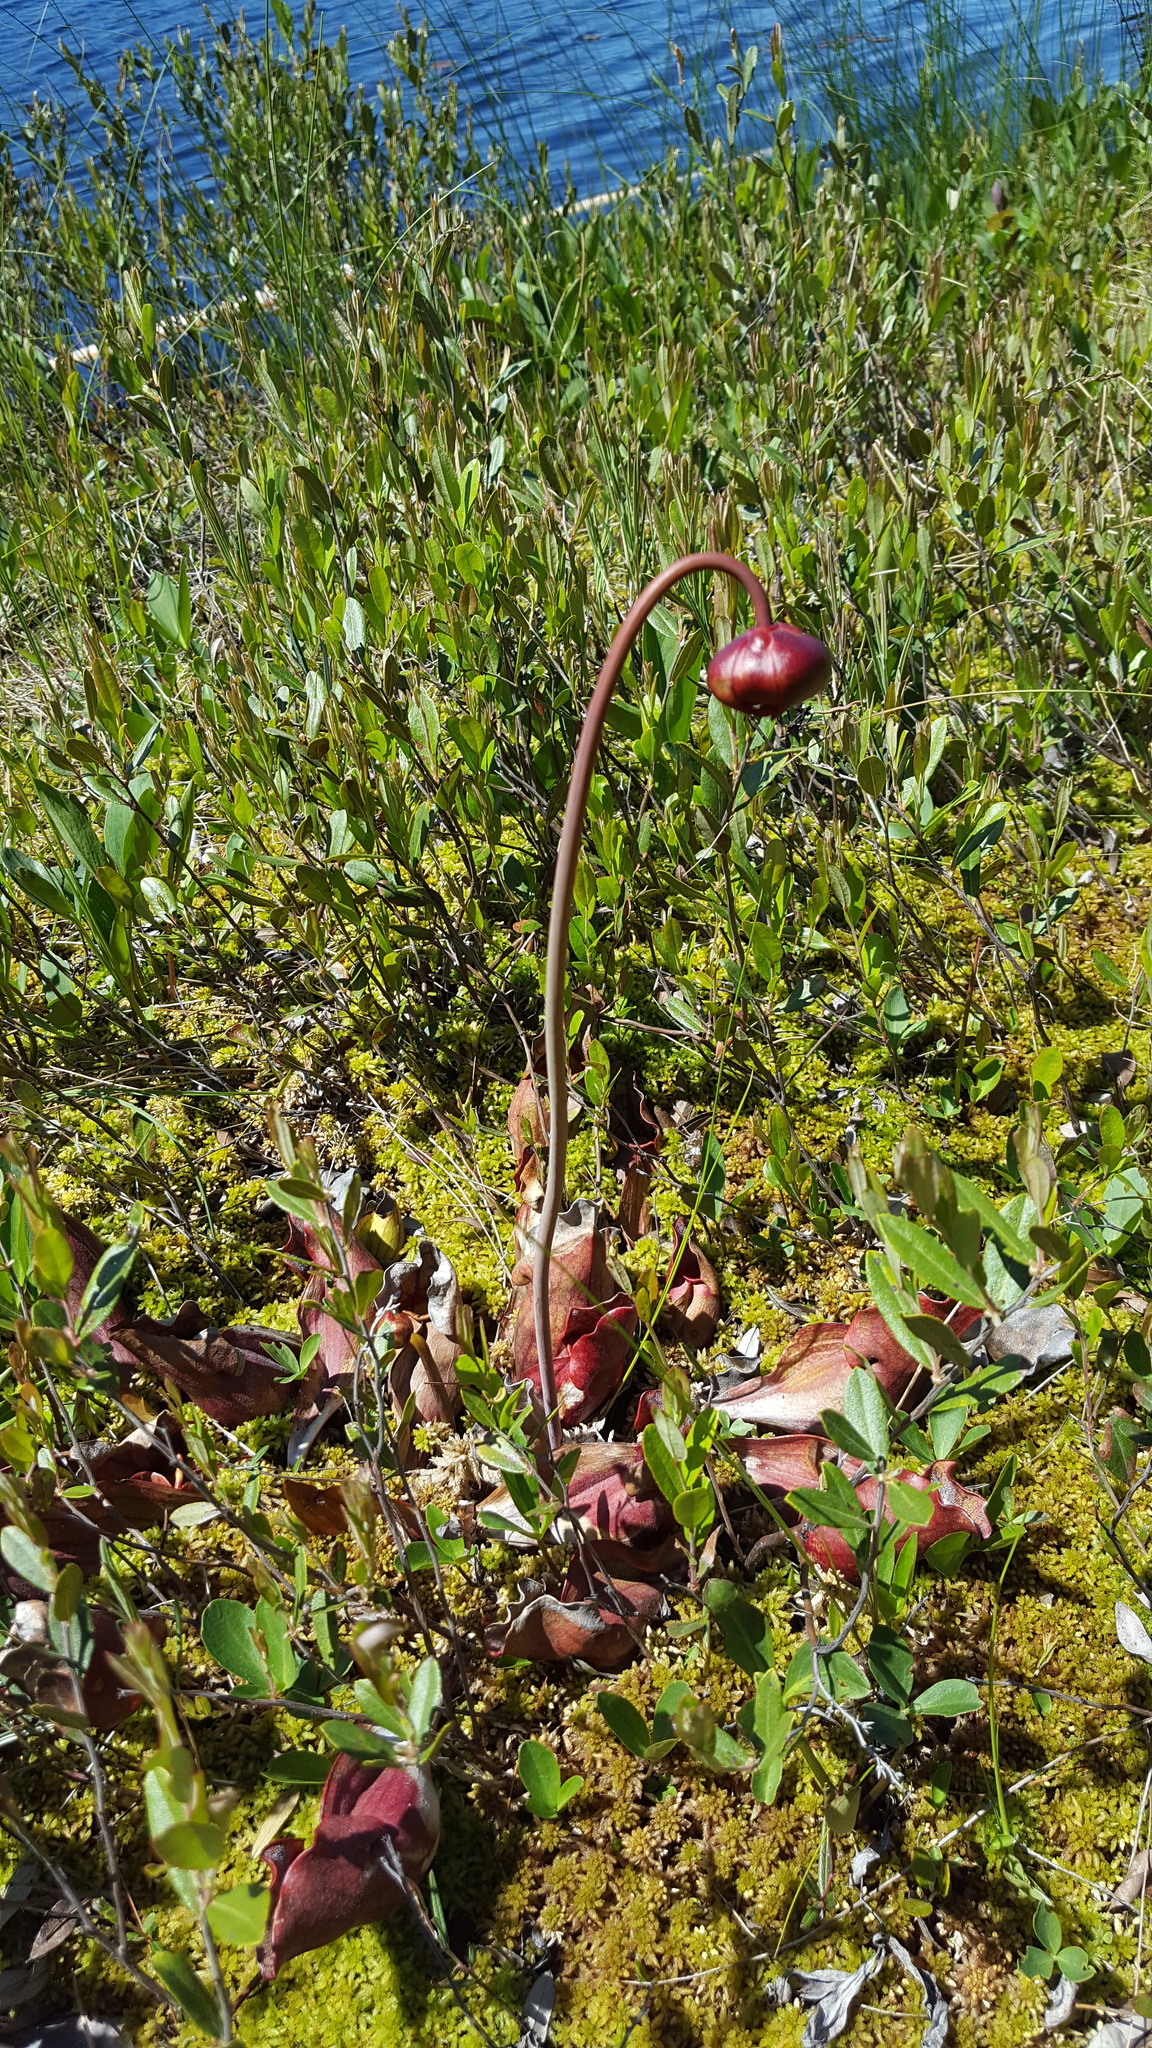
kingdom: Plantae
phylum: Tracheophyta
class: Magnoliopsida
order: Ericales
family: Sarraceniaceae
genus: Sarracenia
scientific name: Sarracenia purpurea
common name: Pitcherplant
